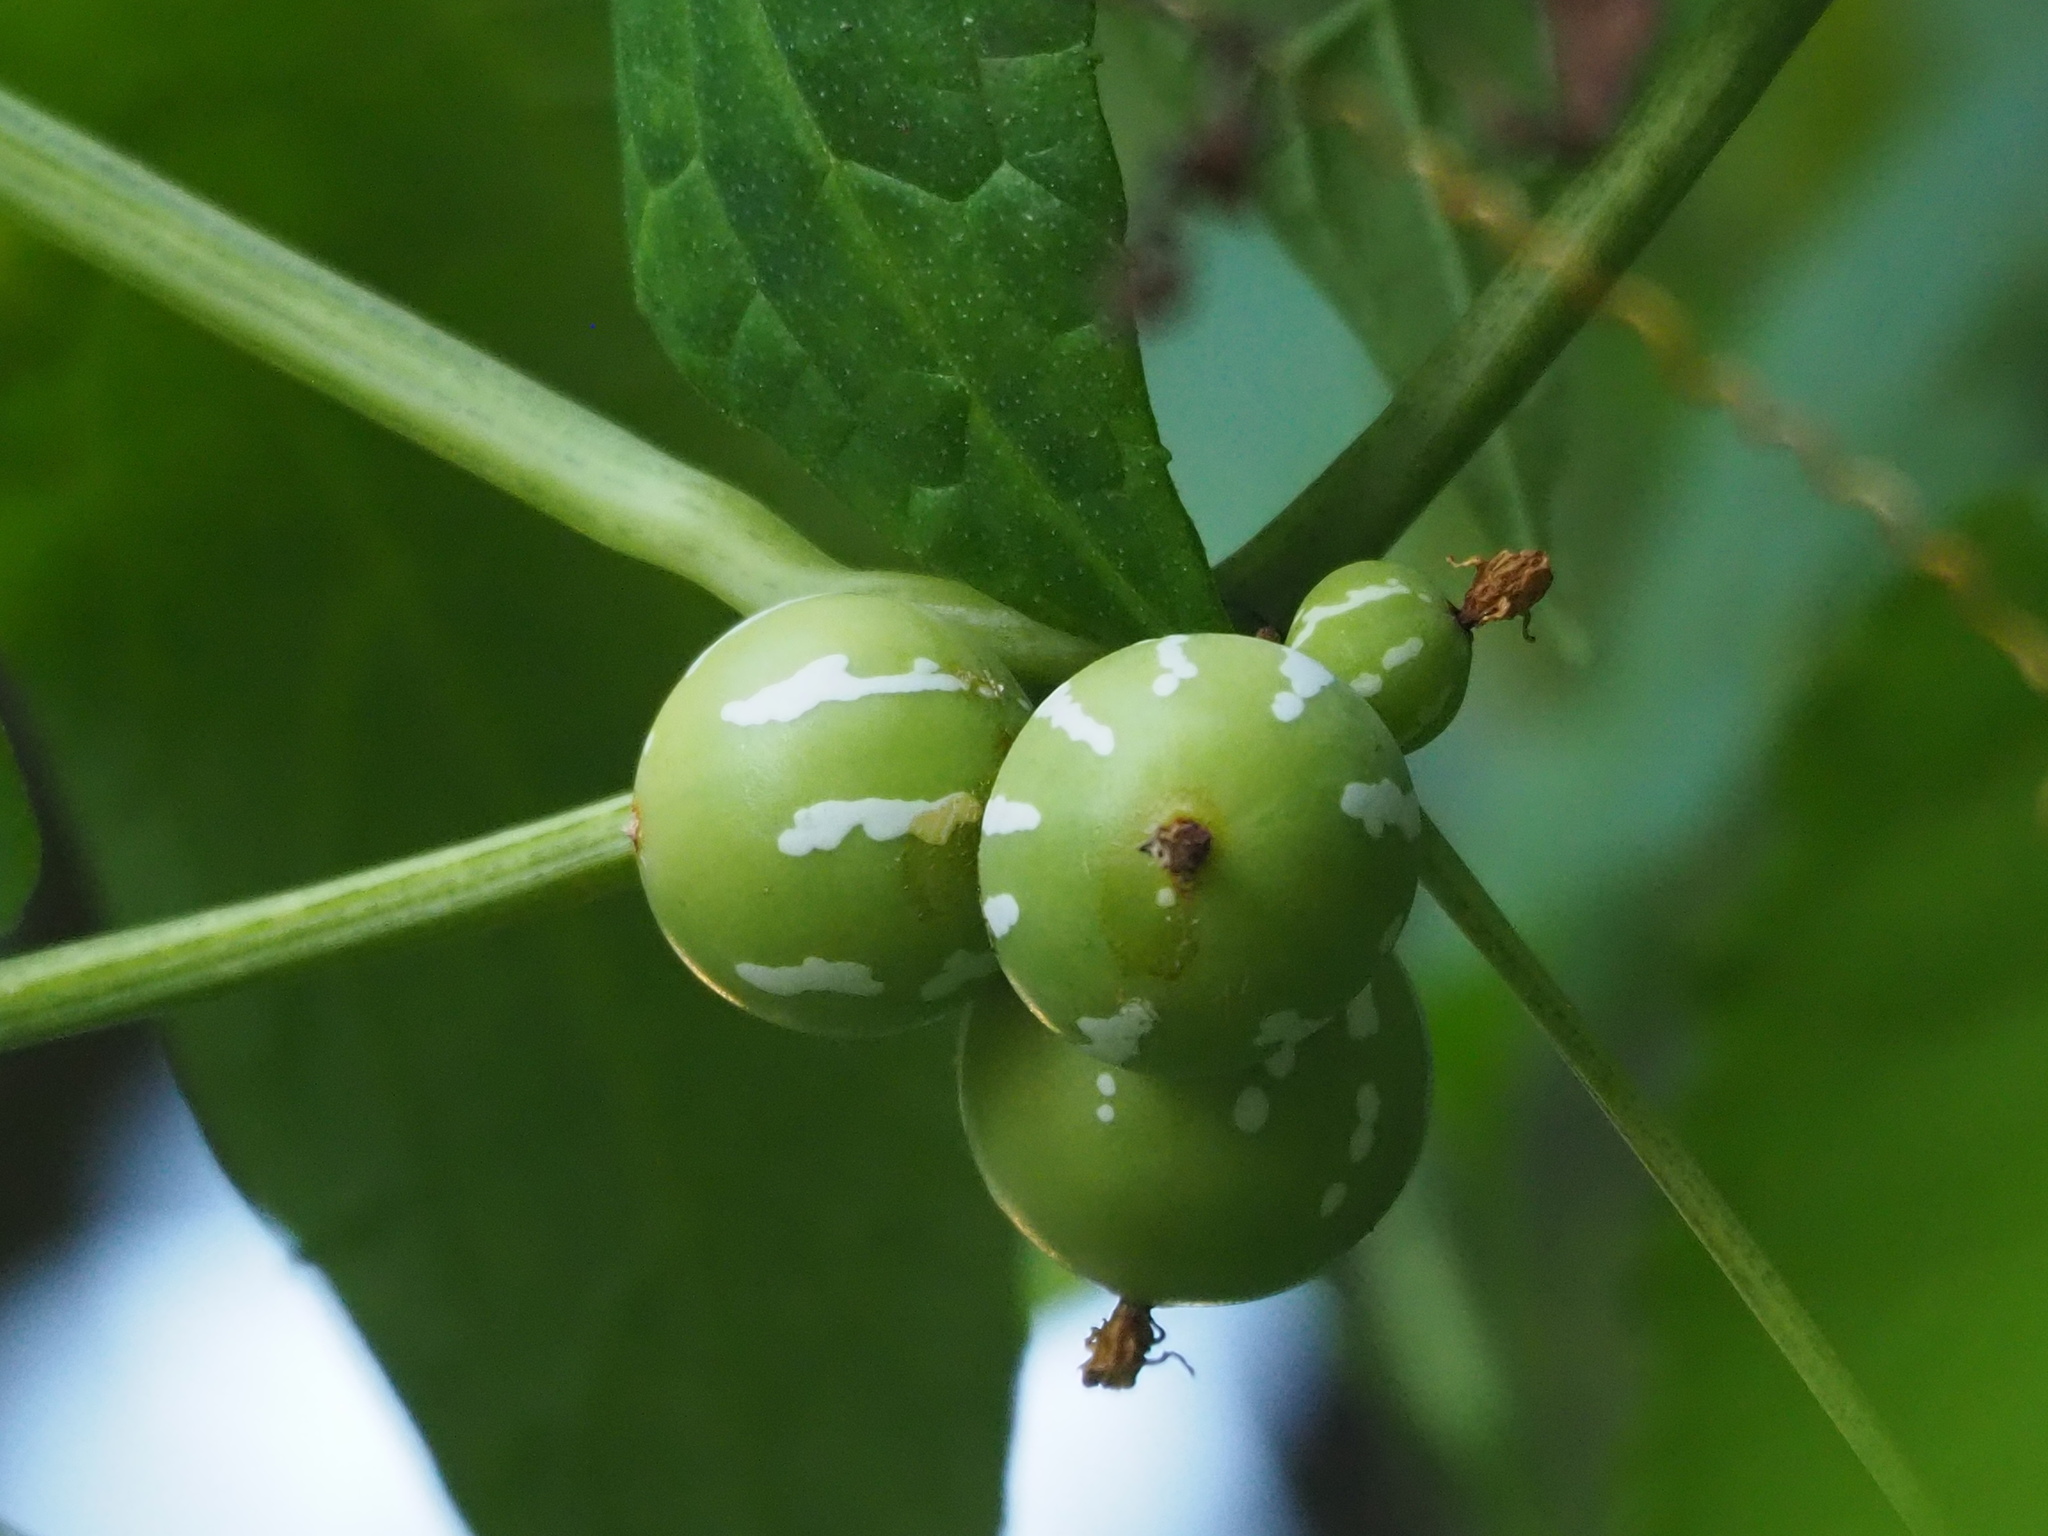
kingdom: Plantae
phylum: Tracheophyta
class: Magnoliopsida
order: Cucurbitales
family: Cucurbitaceae
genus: Diplocyclos
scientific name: Diplocyclos palmatus
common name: Striped-cucumber
